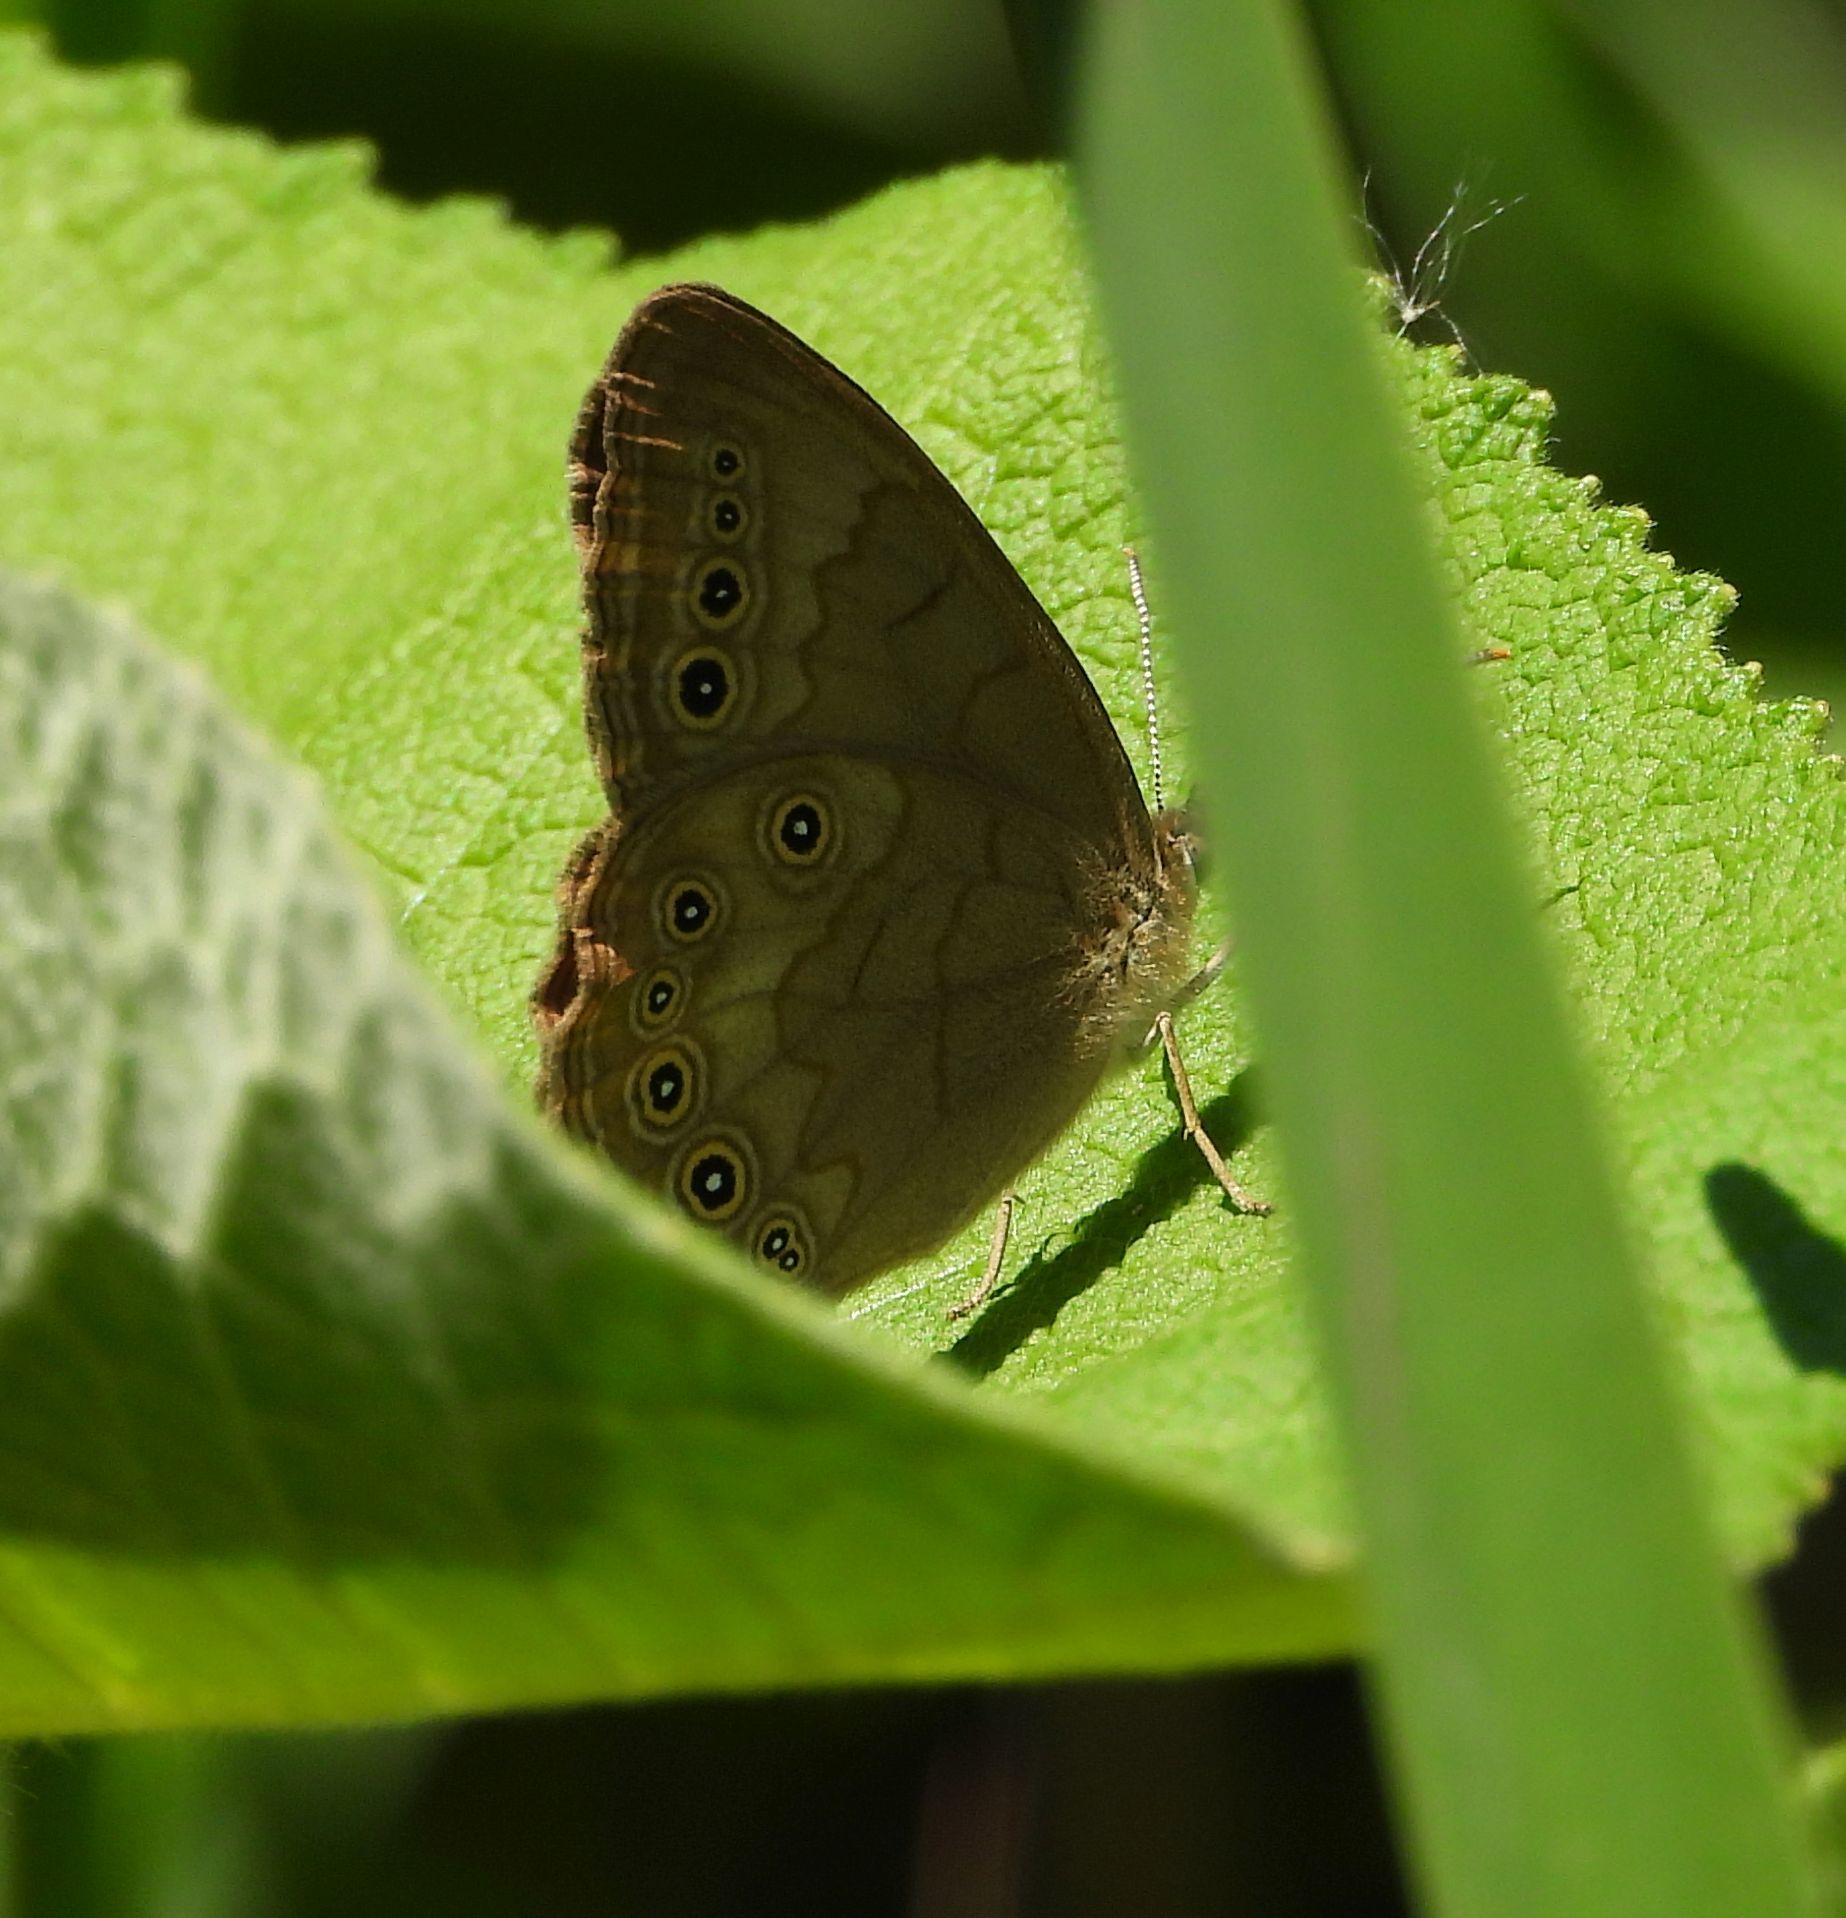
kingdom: Animalia
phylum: Arthropoda
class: Insecta
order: Lepidoptera
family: Nymphalidae
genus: Lethe
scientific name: Lethe eurydice
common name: Eyed brown
